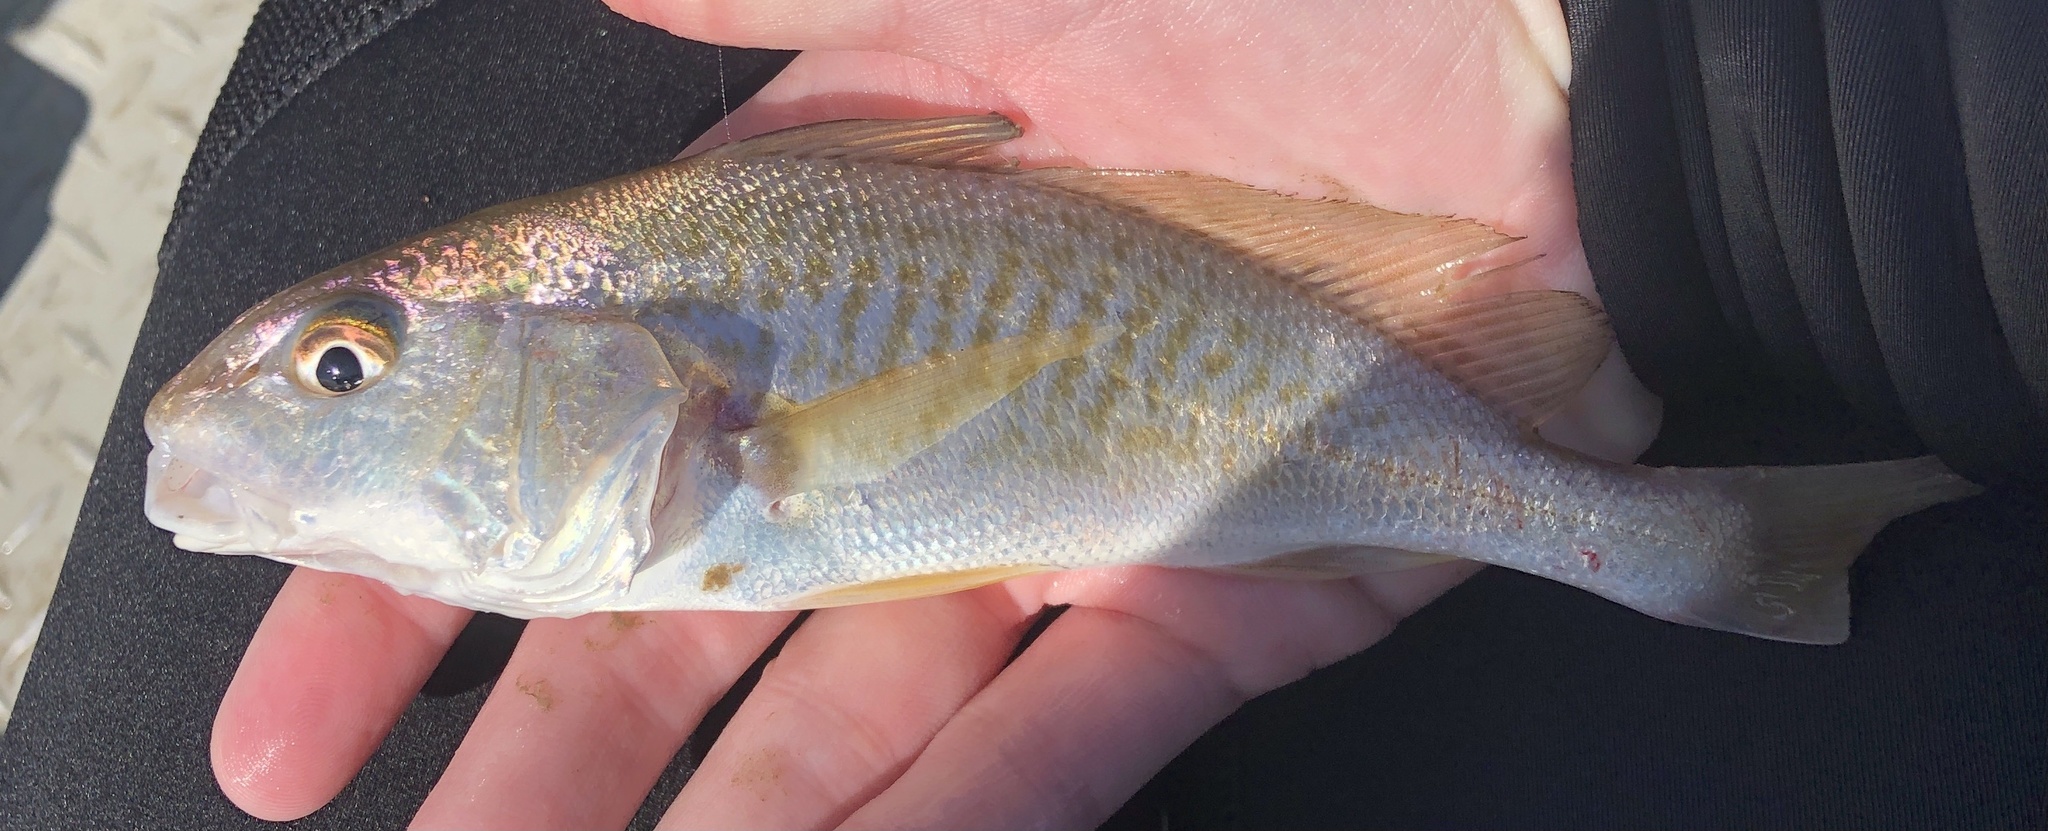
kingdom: Animalia
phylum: Chordata
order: Perciformes
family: Sciaenidae
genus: Micropogonias
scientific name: Micropogonias undulatus
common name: Atlantic croaker
